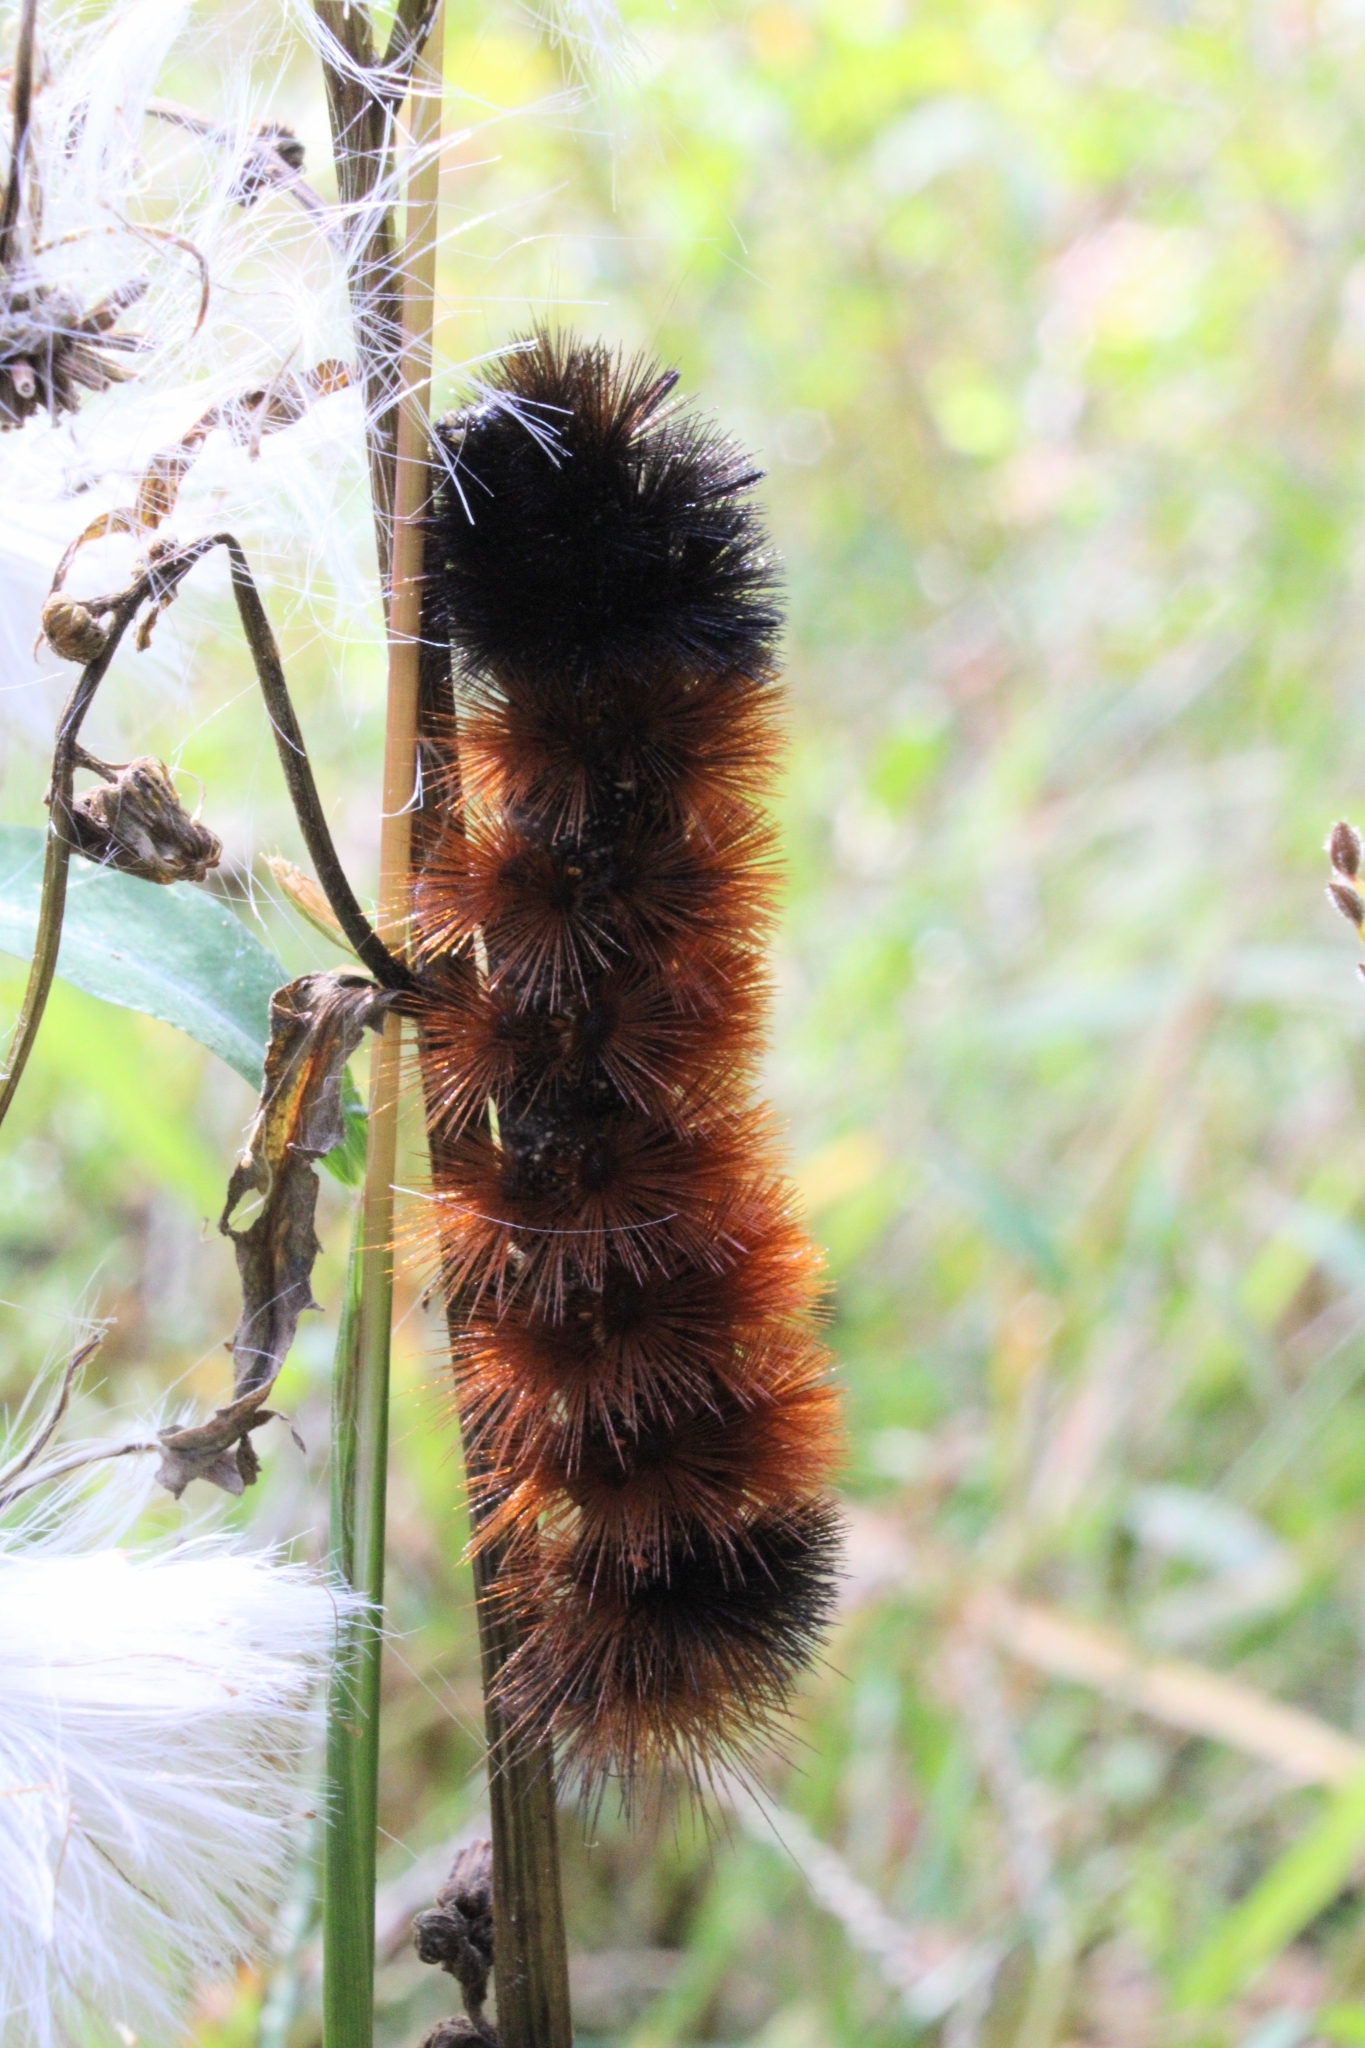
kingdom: Animalia
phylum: Arthropoda
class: Insecta
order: Lepidoptera
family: Erebidae
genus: Pyrrharctia
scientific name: Pyrrharctia isabella
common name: Isabella tiger moth
